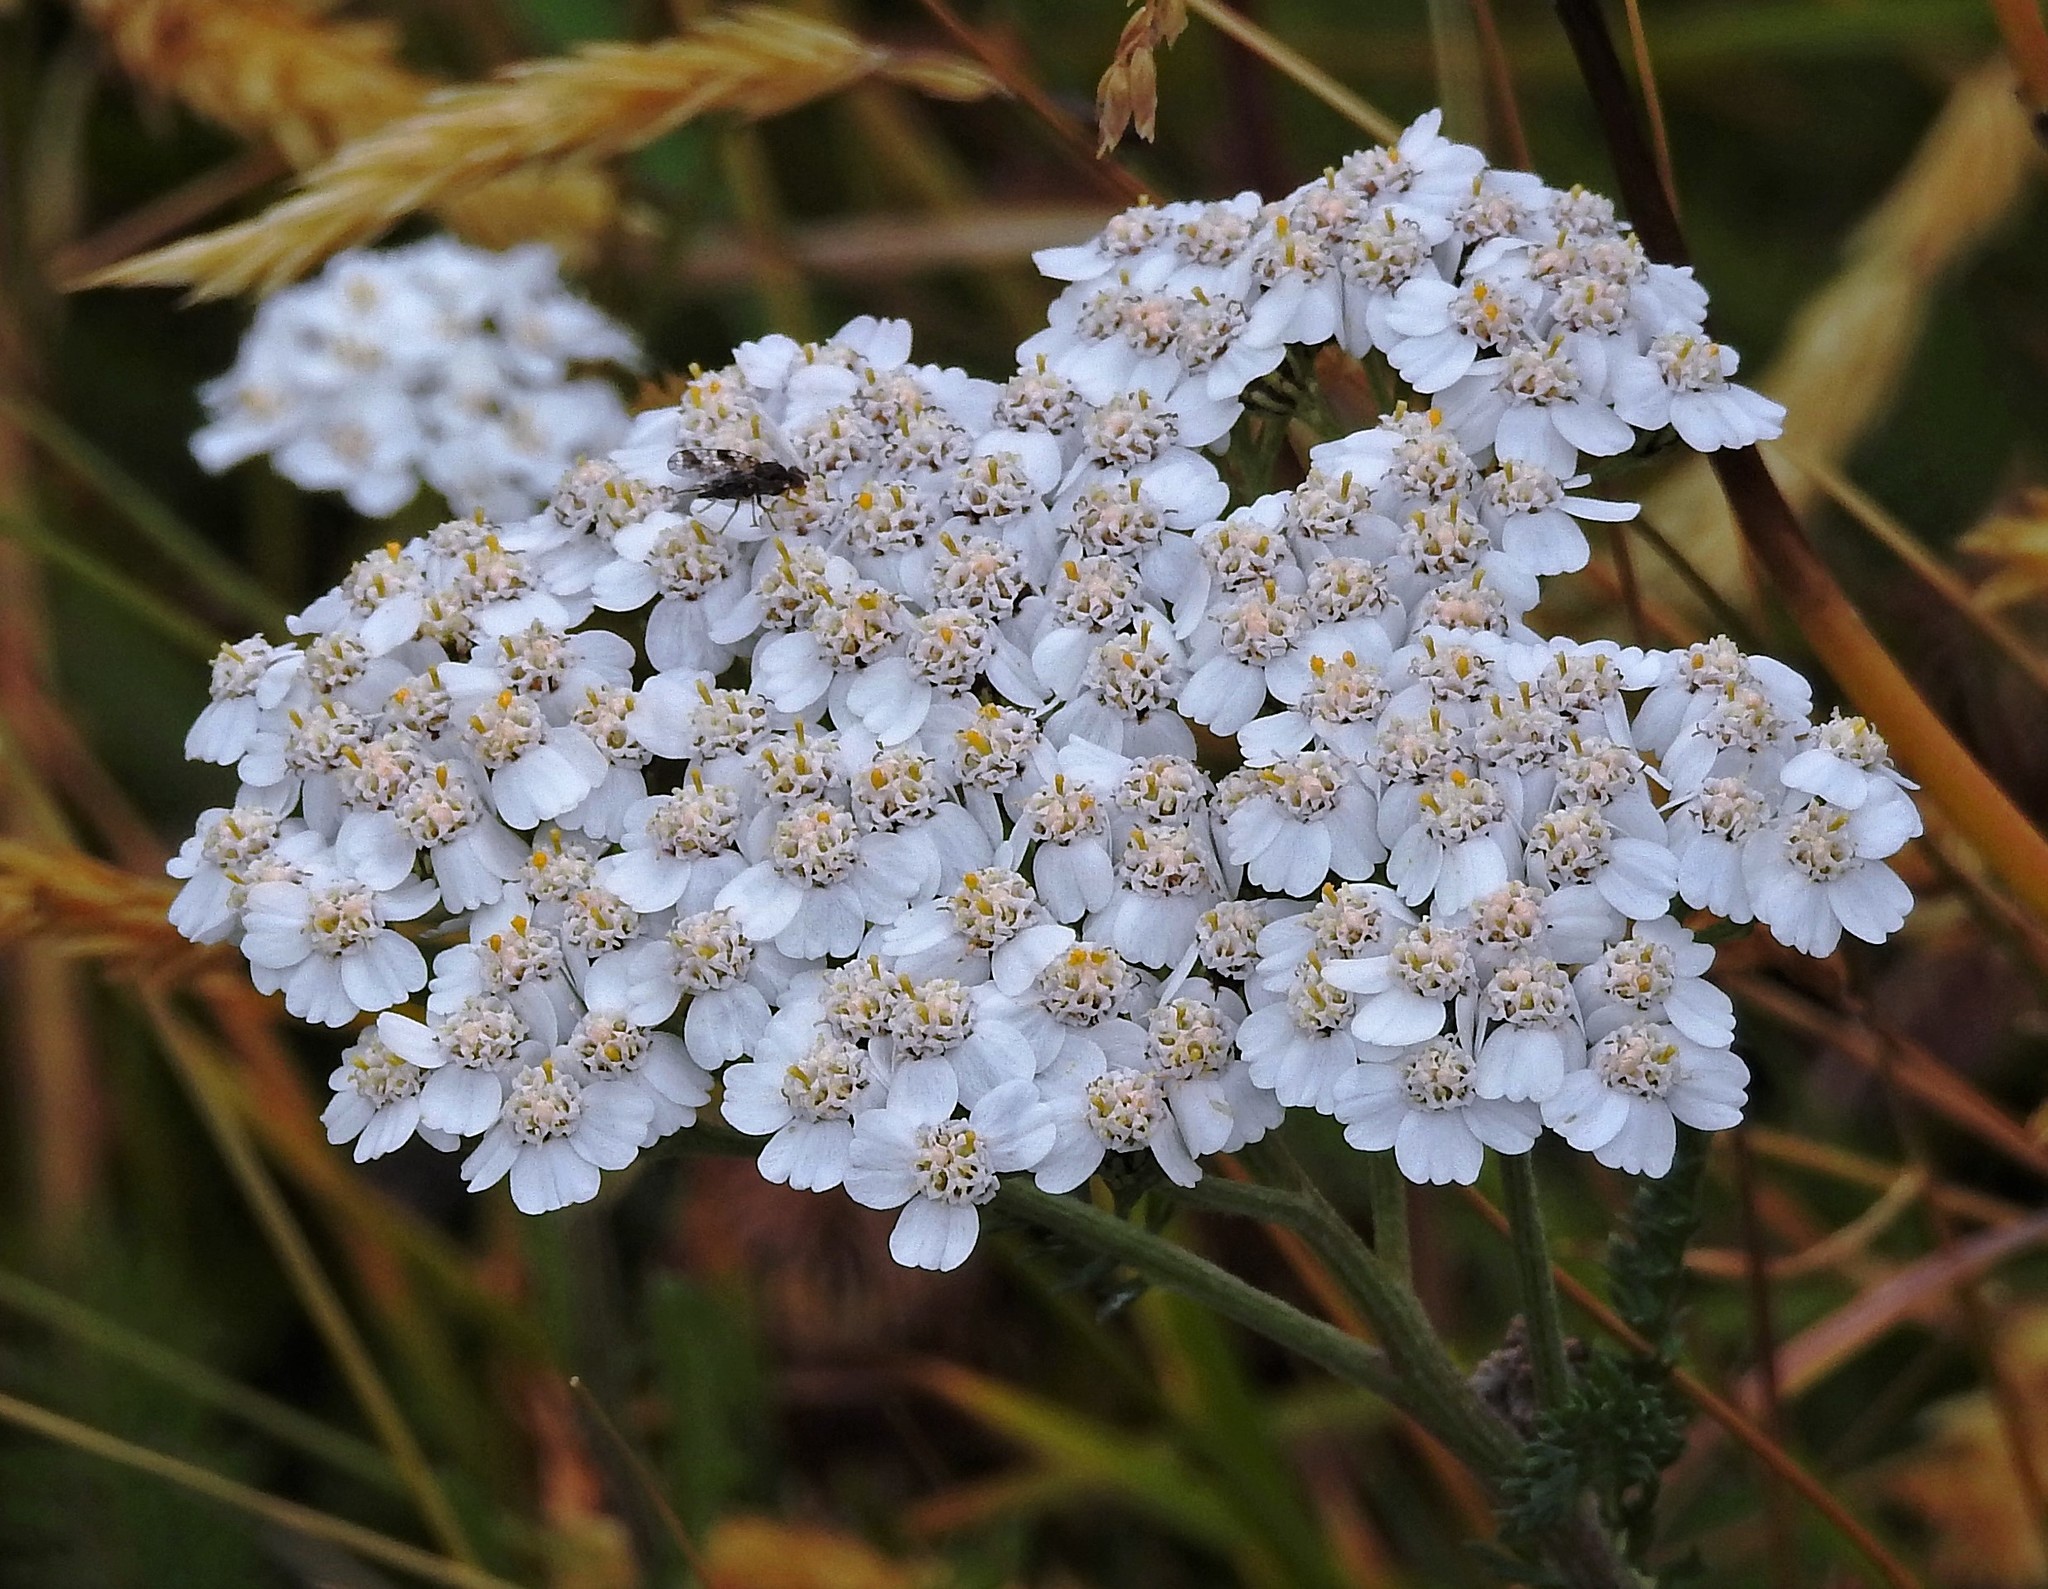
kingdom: Plantae
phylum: Tracheophyta
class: Magnoliopsida
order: Asterales
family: Asteraceae
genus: Achillea
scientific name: Achillea millefolium
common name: Yarrow
